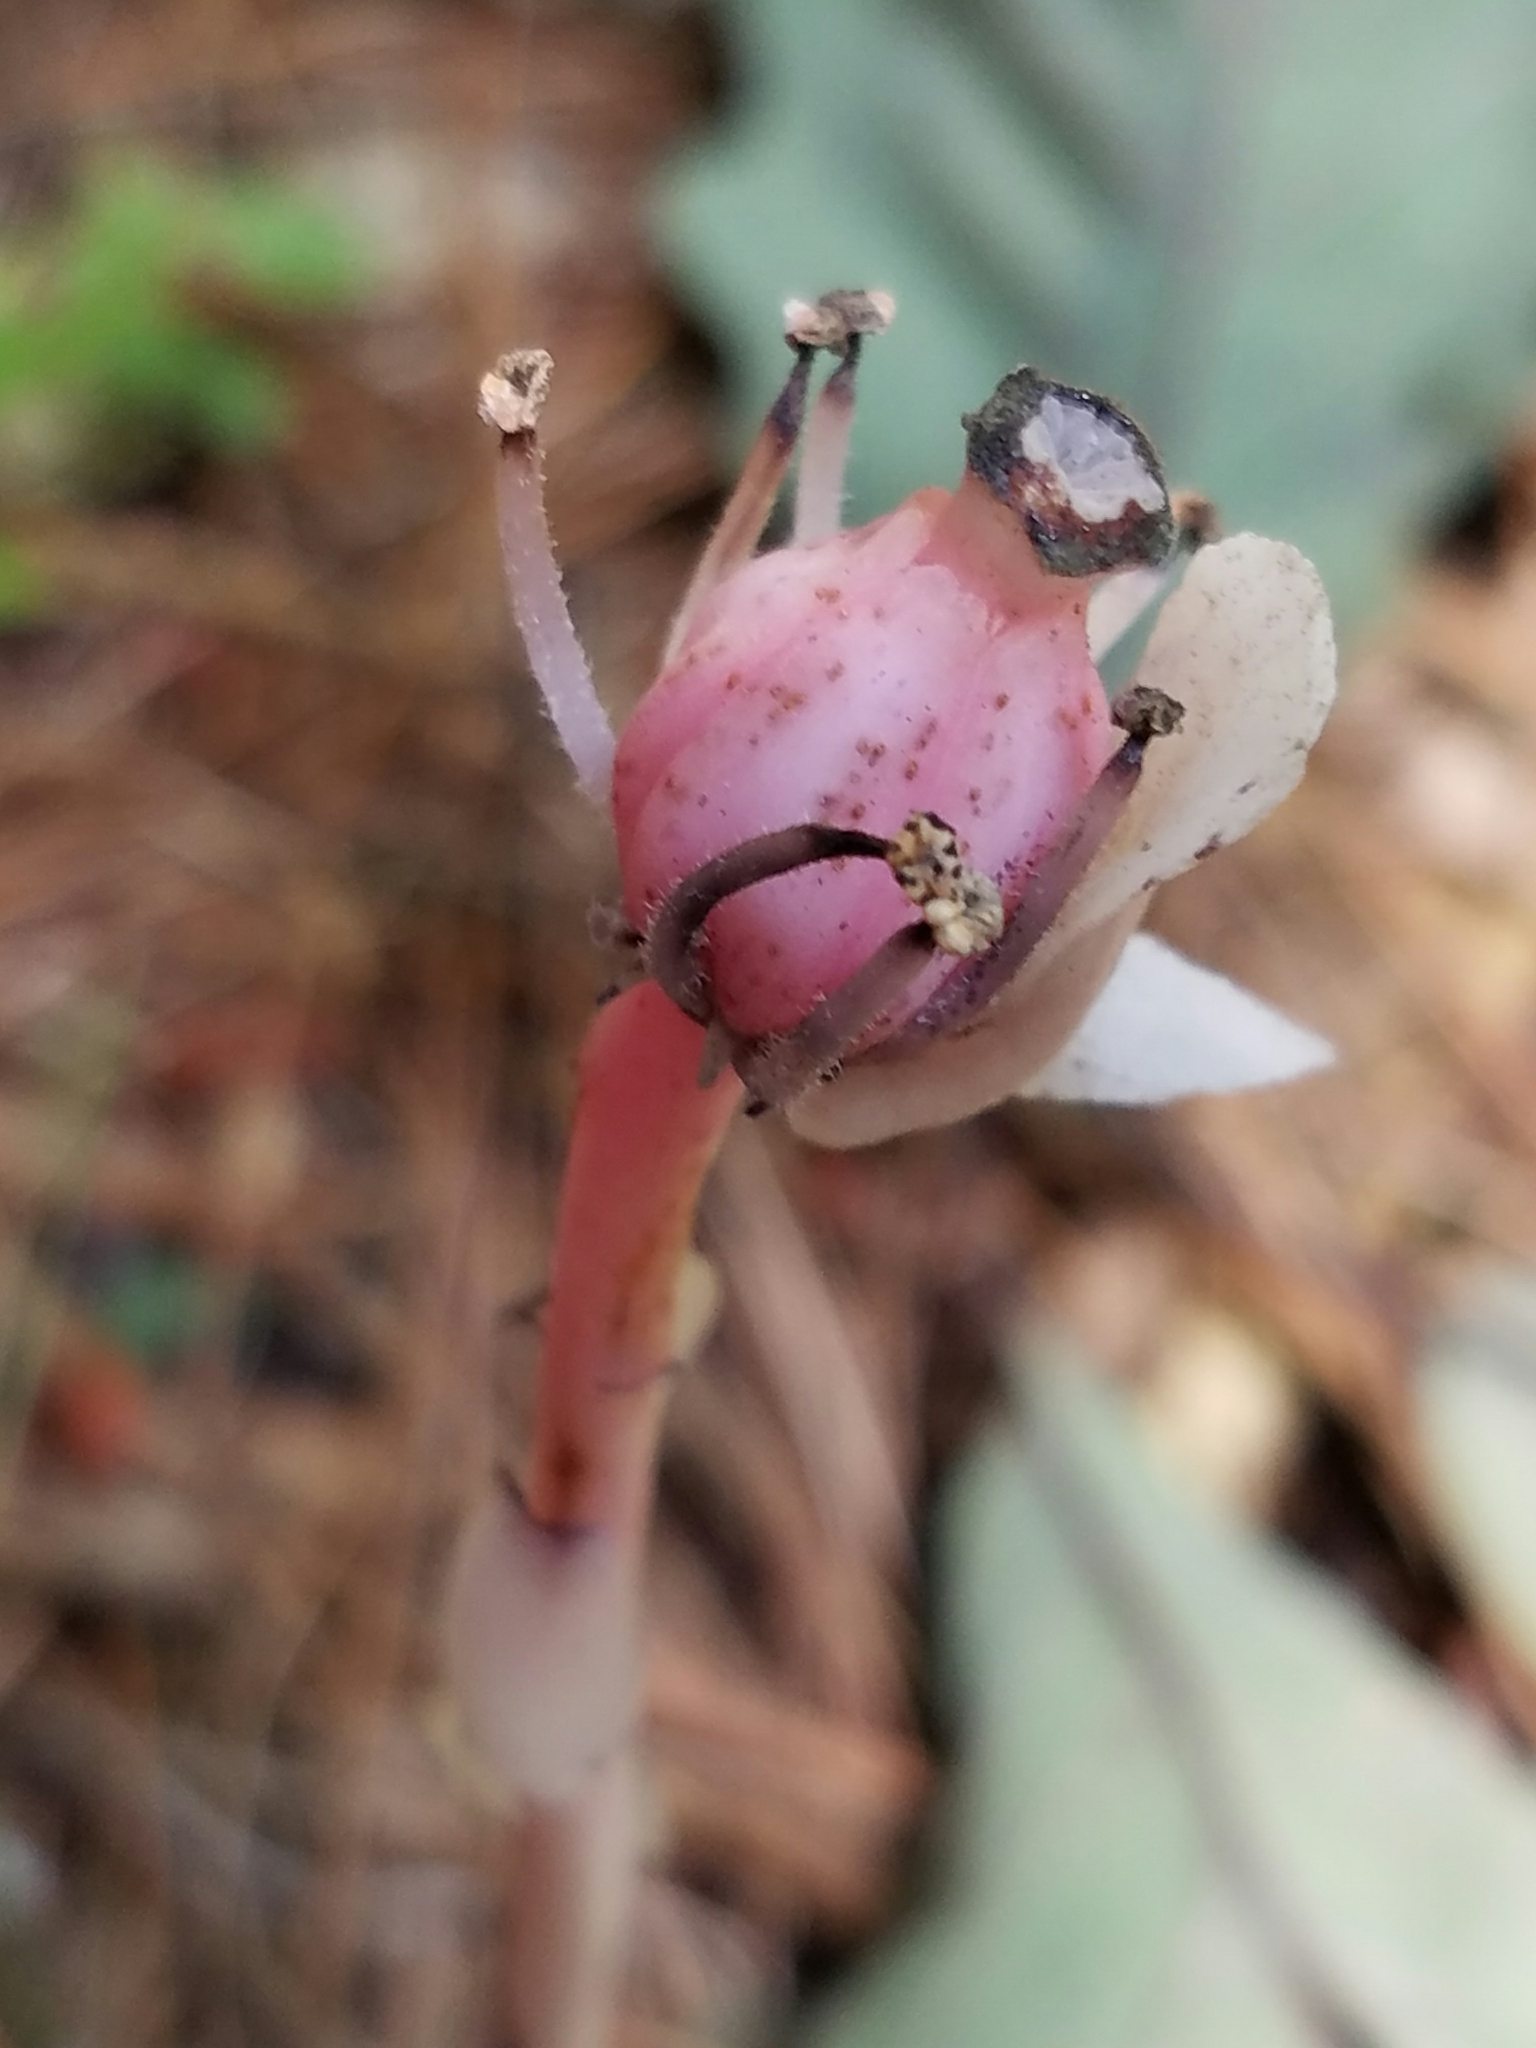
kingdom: Plantae
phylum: Tracheophyta
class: Magnoliopsida
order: Ericales
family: Ericaceae
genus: Monotropa
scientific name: Monotropa uniflora
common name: Convulsion root
